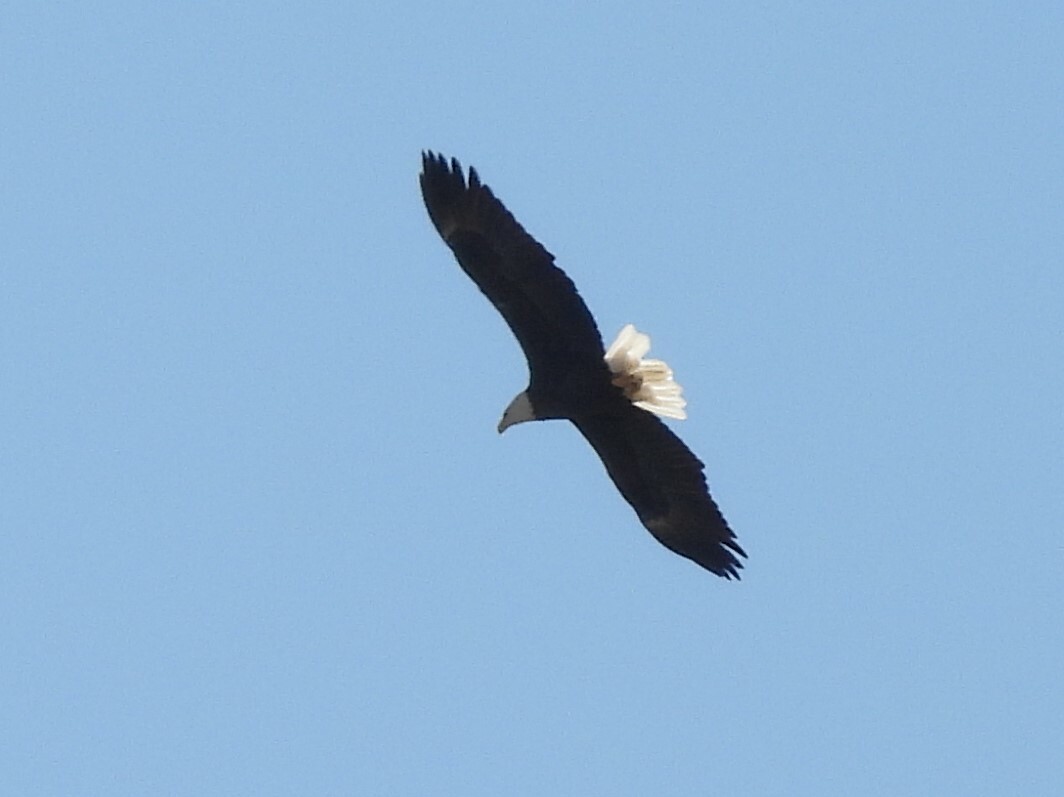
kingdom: Animalia
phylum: Chordata
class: Aves
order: Accipitriformes
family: Accipitridae
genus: Haliaeetus
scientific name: Haliaeetus leucocephalus
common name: Bald eagle
